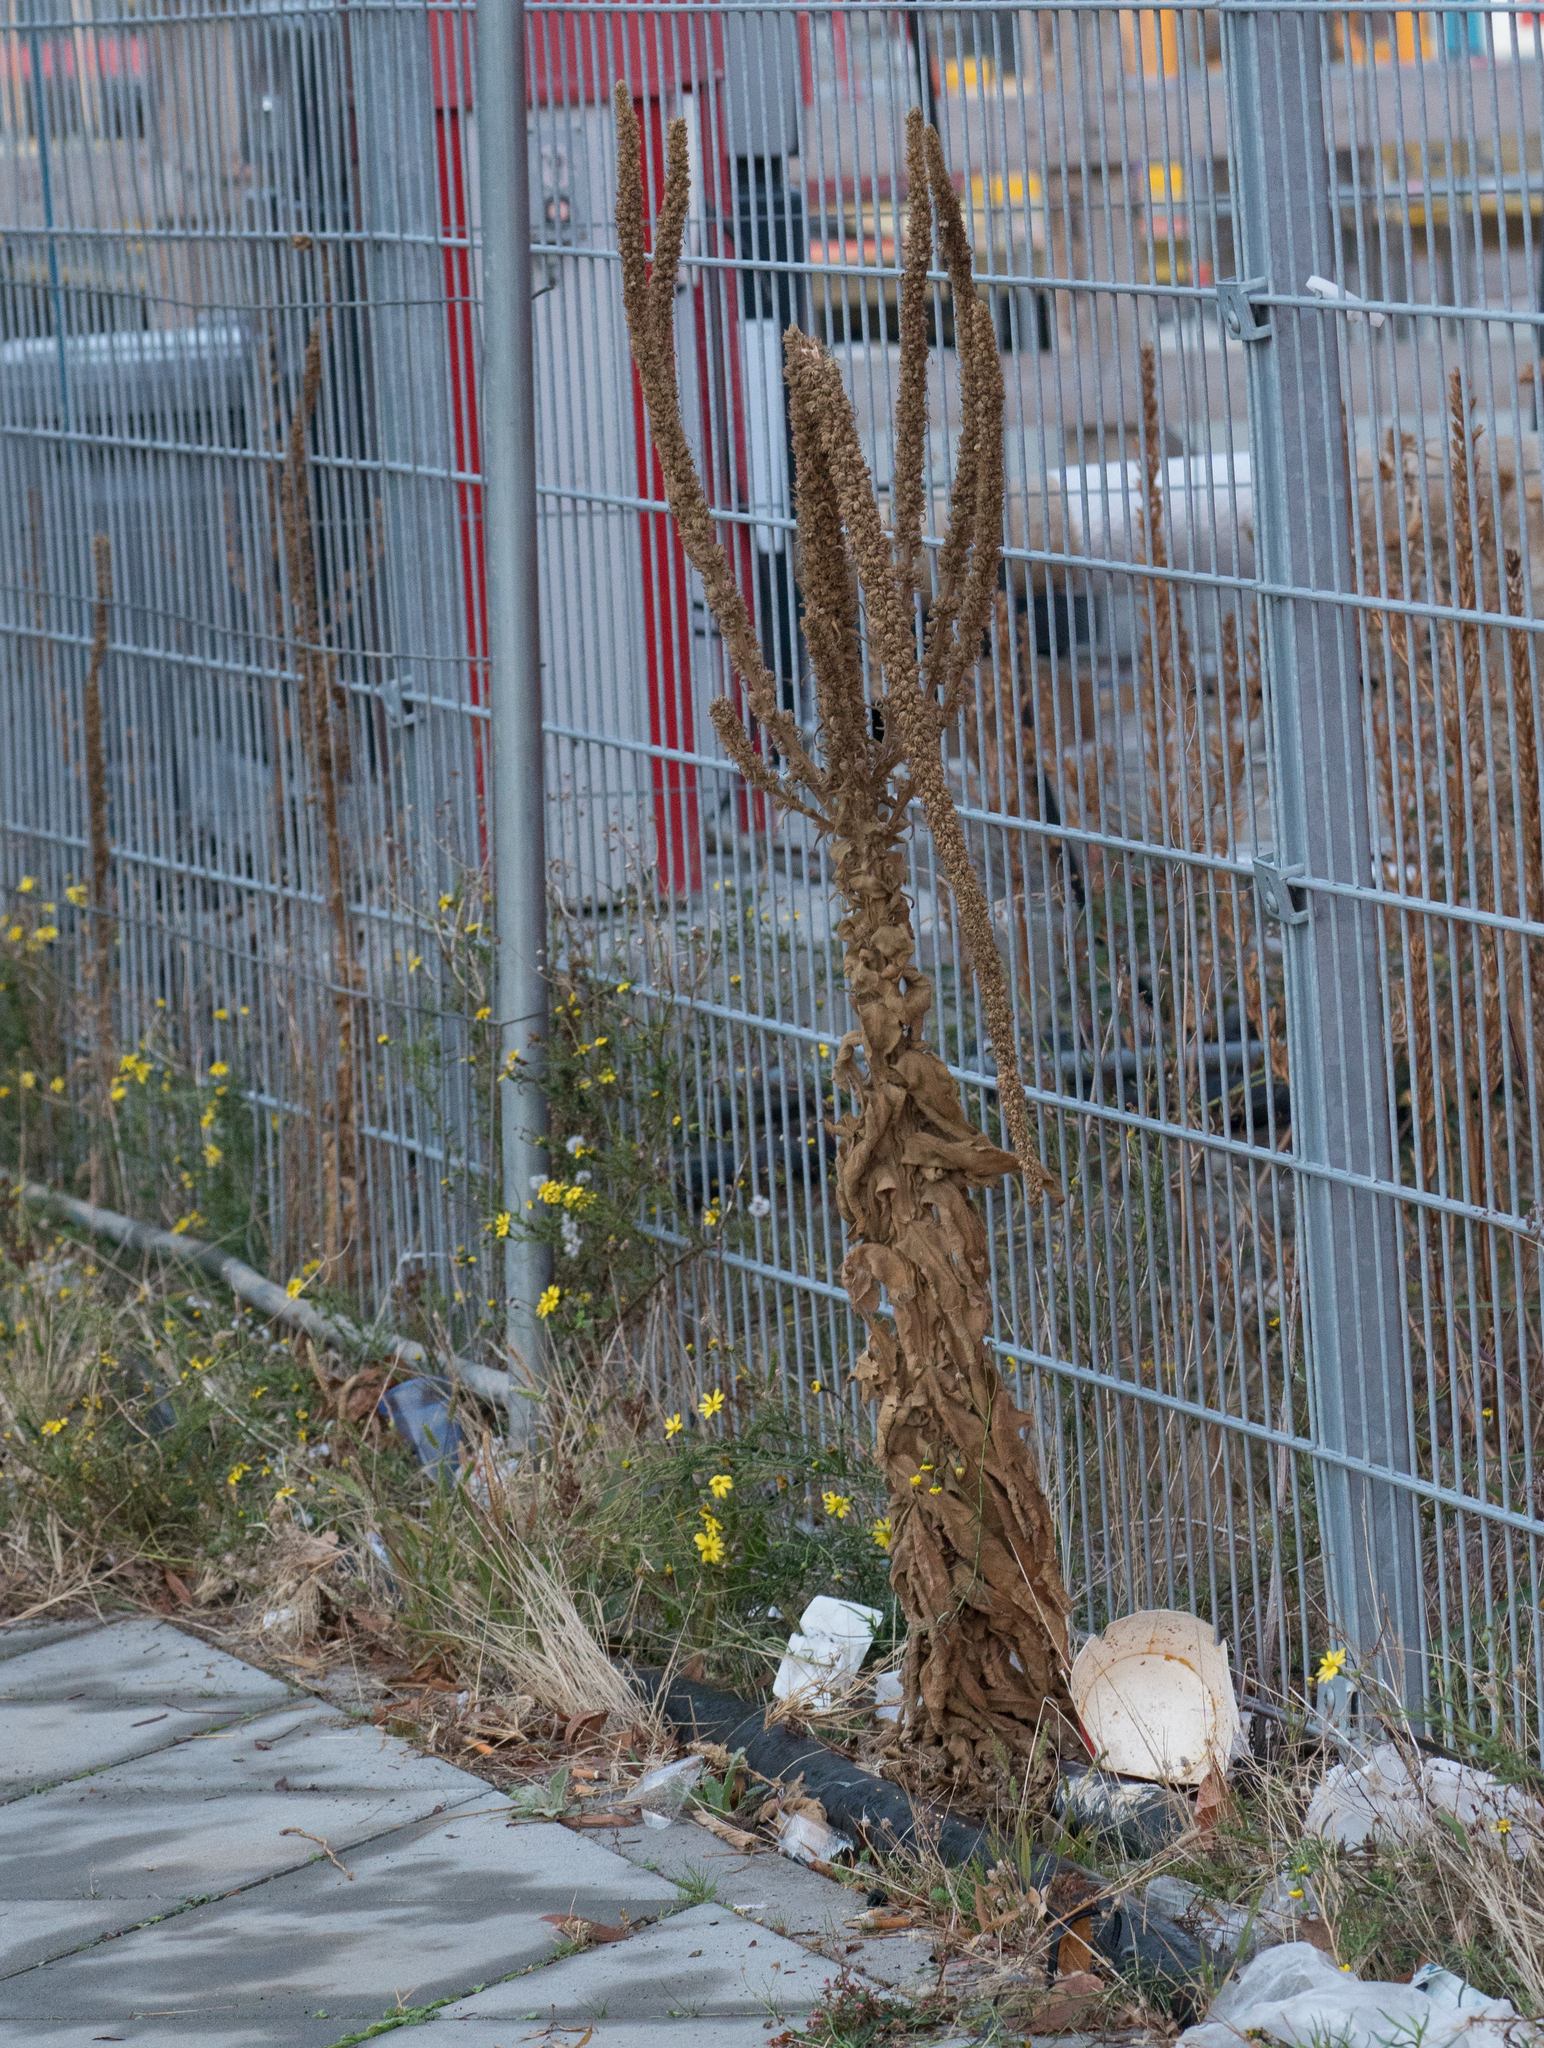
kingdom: Plantae
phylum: Tracheophyta
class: Magnoliopsida
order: Lamiales
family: Scrophulariaceae
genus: Verbascum
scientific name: Verbascum thapsus
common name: Common mullein
